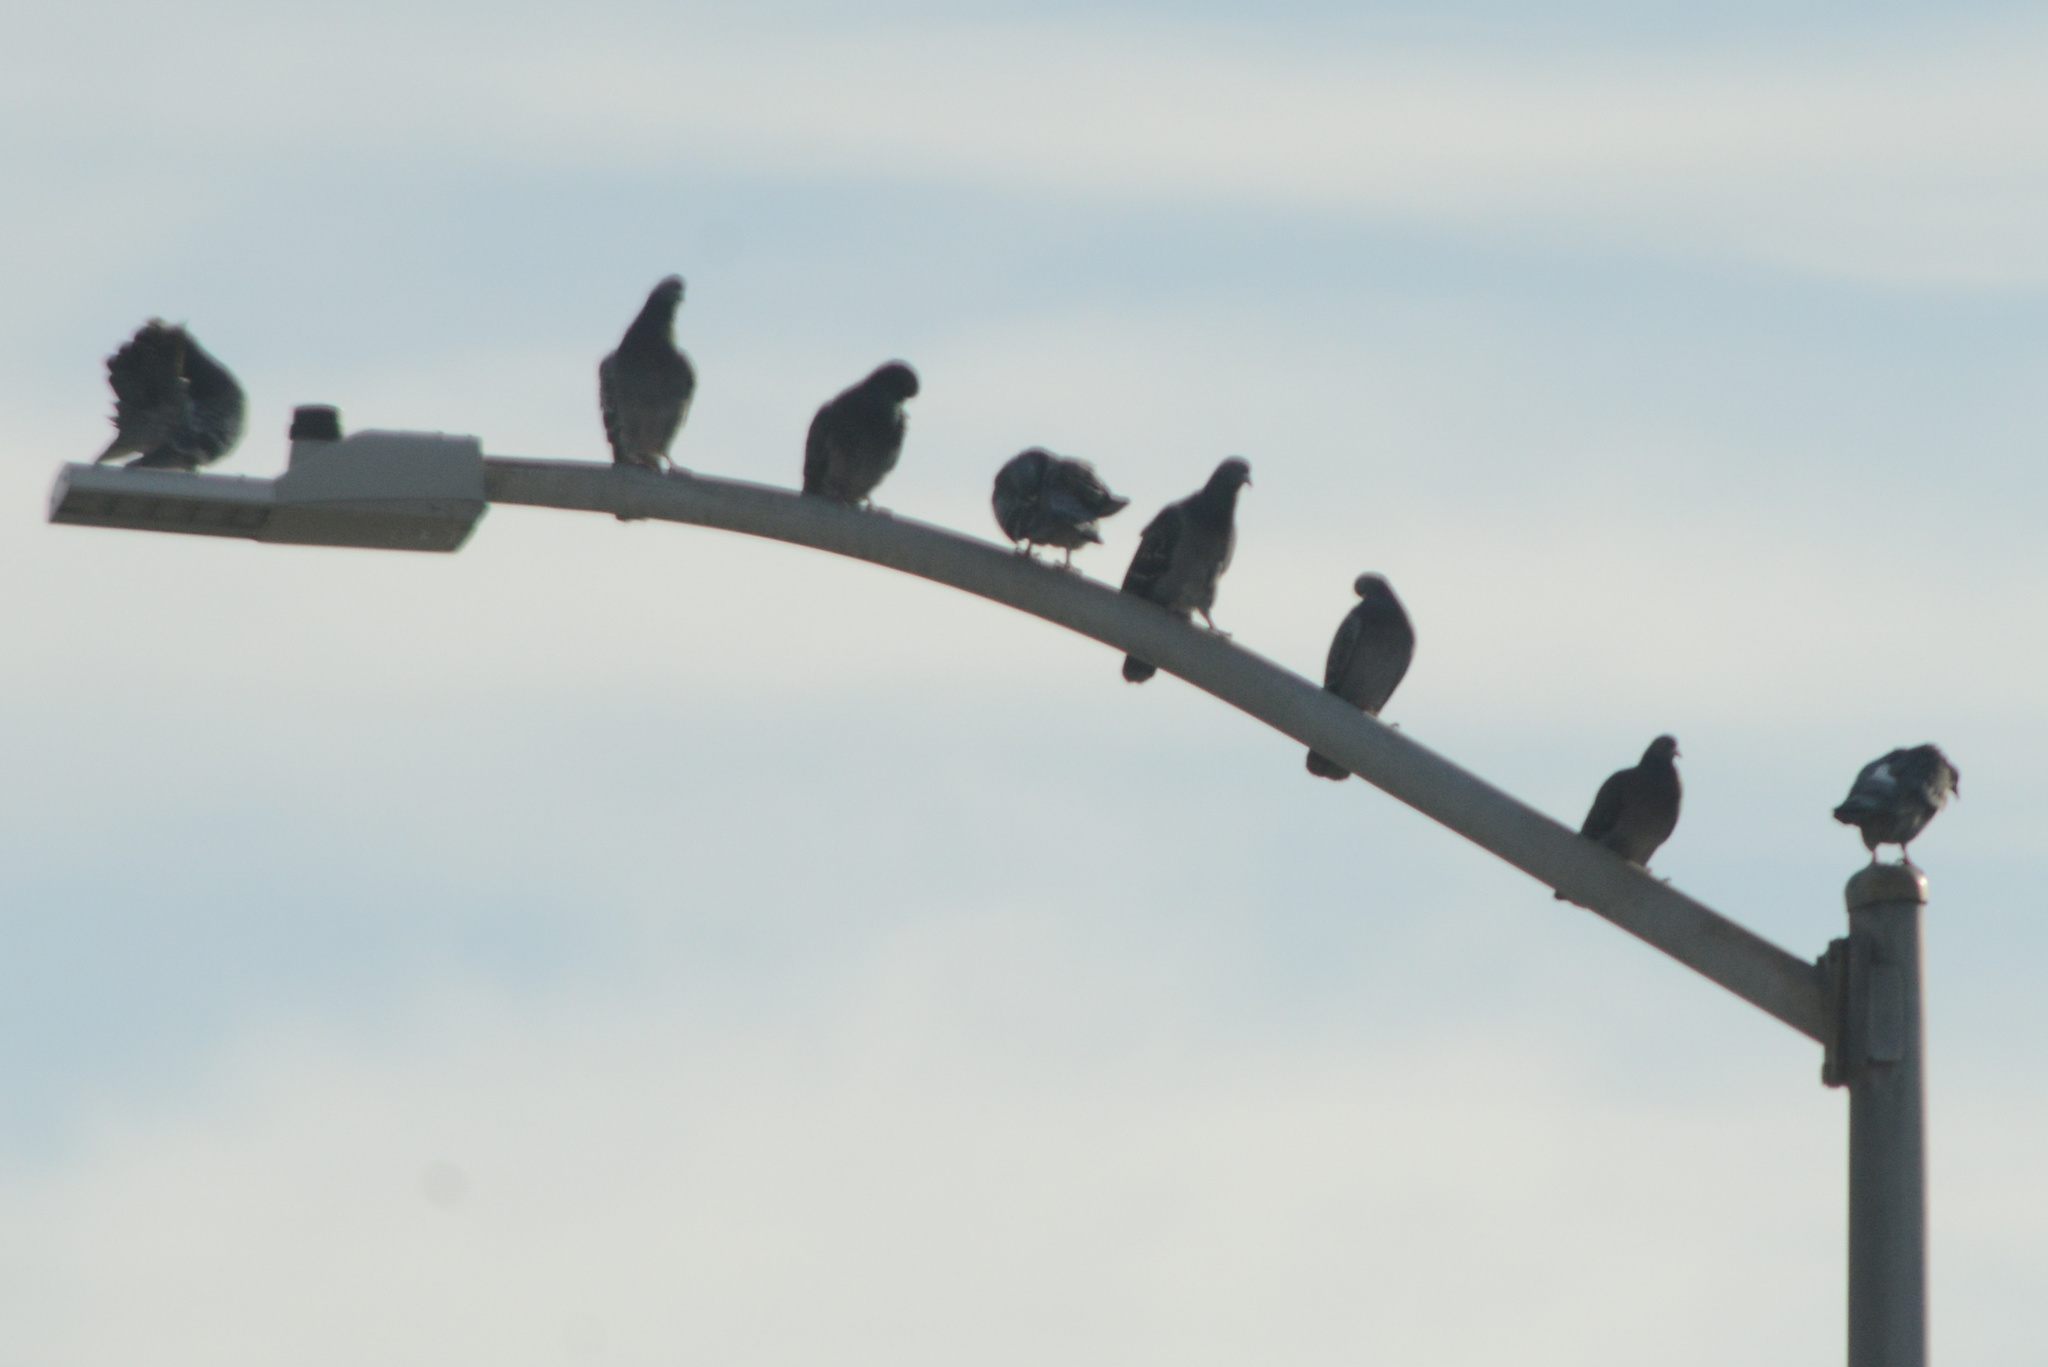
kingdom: Animalia
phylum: Chordata
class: Aves
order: Columbiformes
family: Columbidae
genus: Columba
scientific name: Columba livia
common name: Rock pigeon
